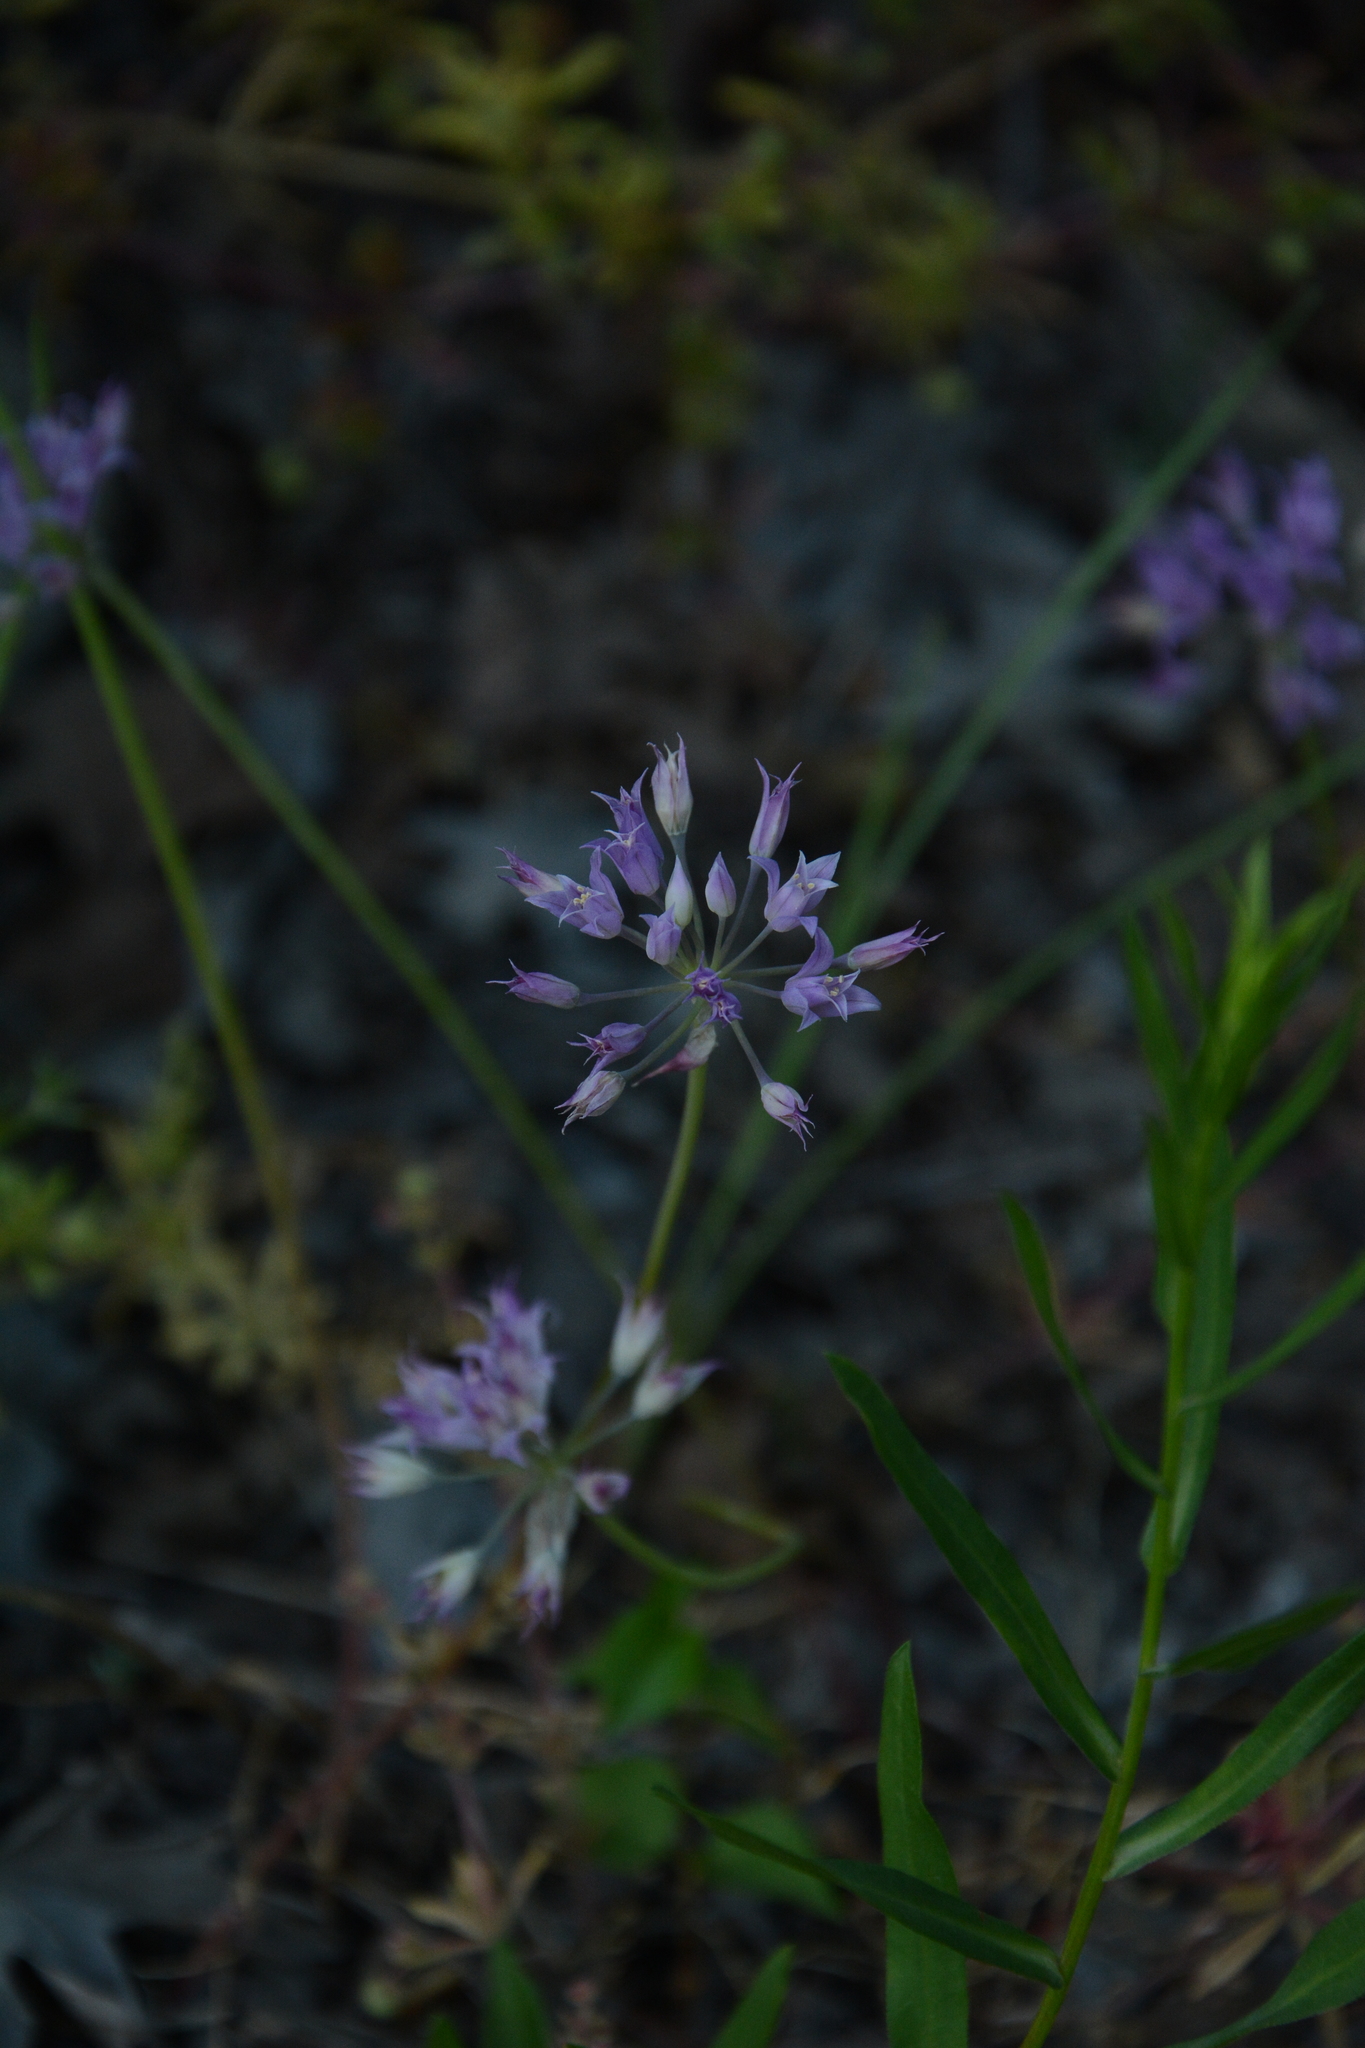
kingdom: Plantae
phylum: Tracheophyta
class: Liliopsida
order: Asparagales
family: Amaryllidaceae
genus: Allium
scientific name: Allium acuminatum
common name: Hooker's onion
